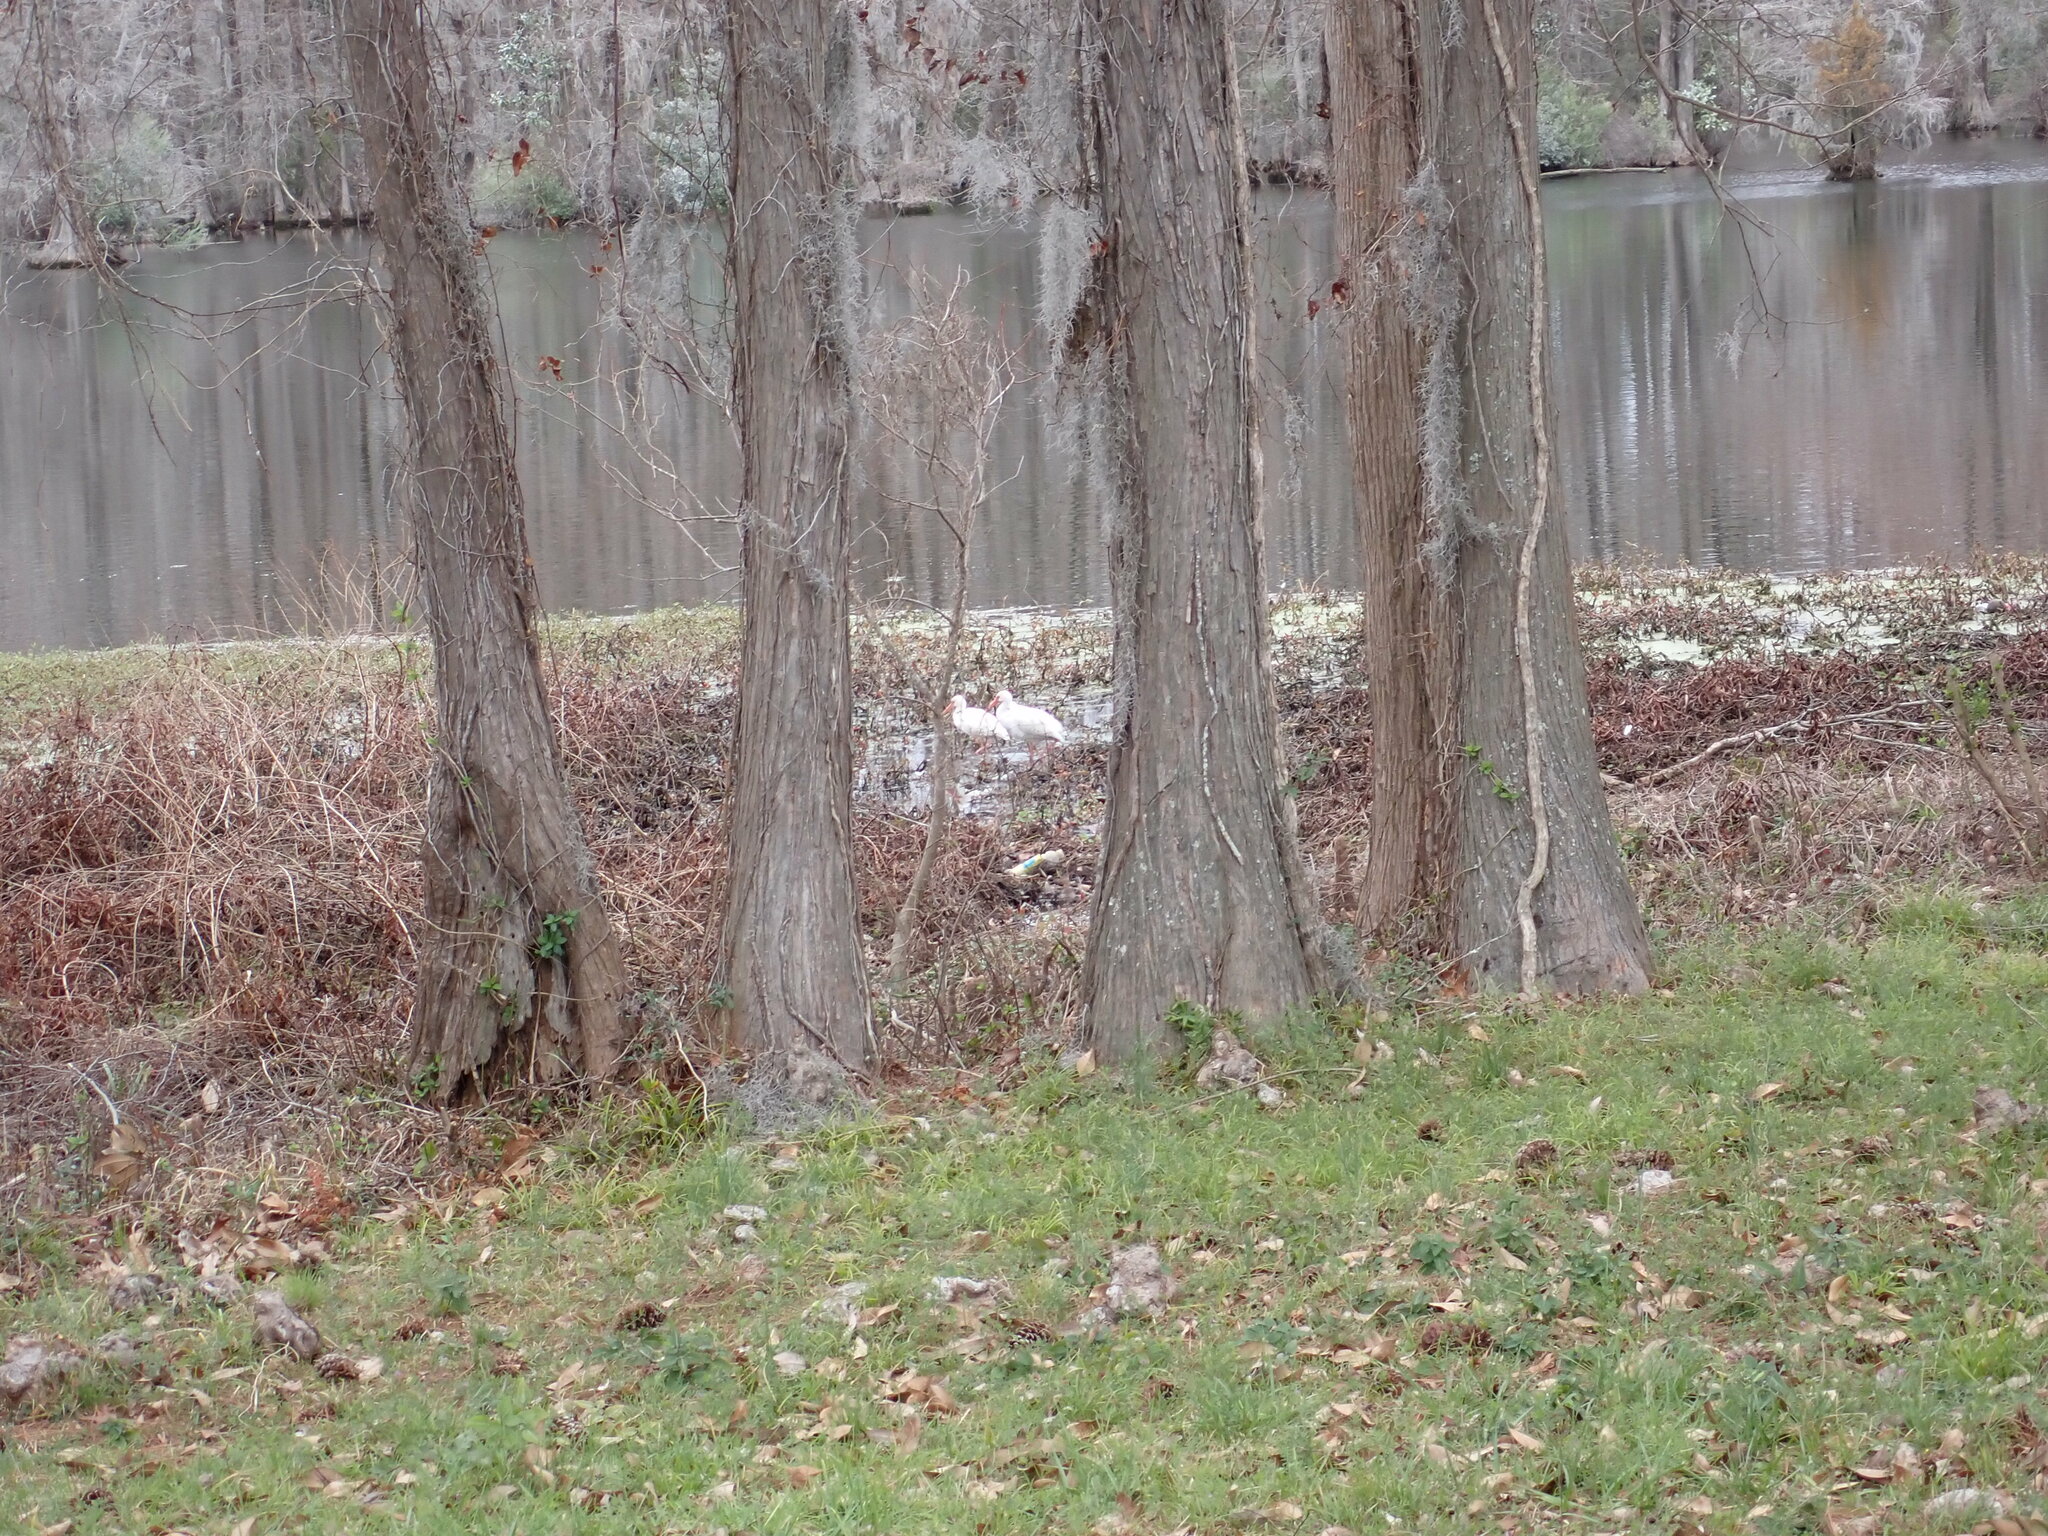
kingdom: Plantae
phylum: Tracheophyta
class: Pinopsida
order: Pinales
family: Cupressaceae
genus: Taxodium
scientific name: Taxodium distichum
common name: Bald cypress
